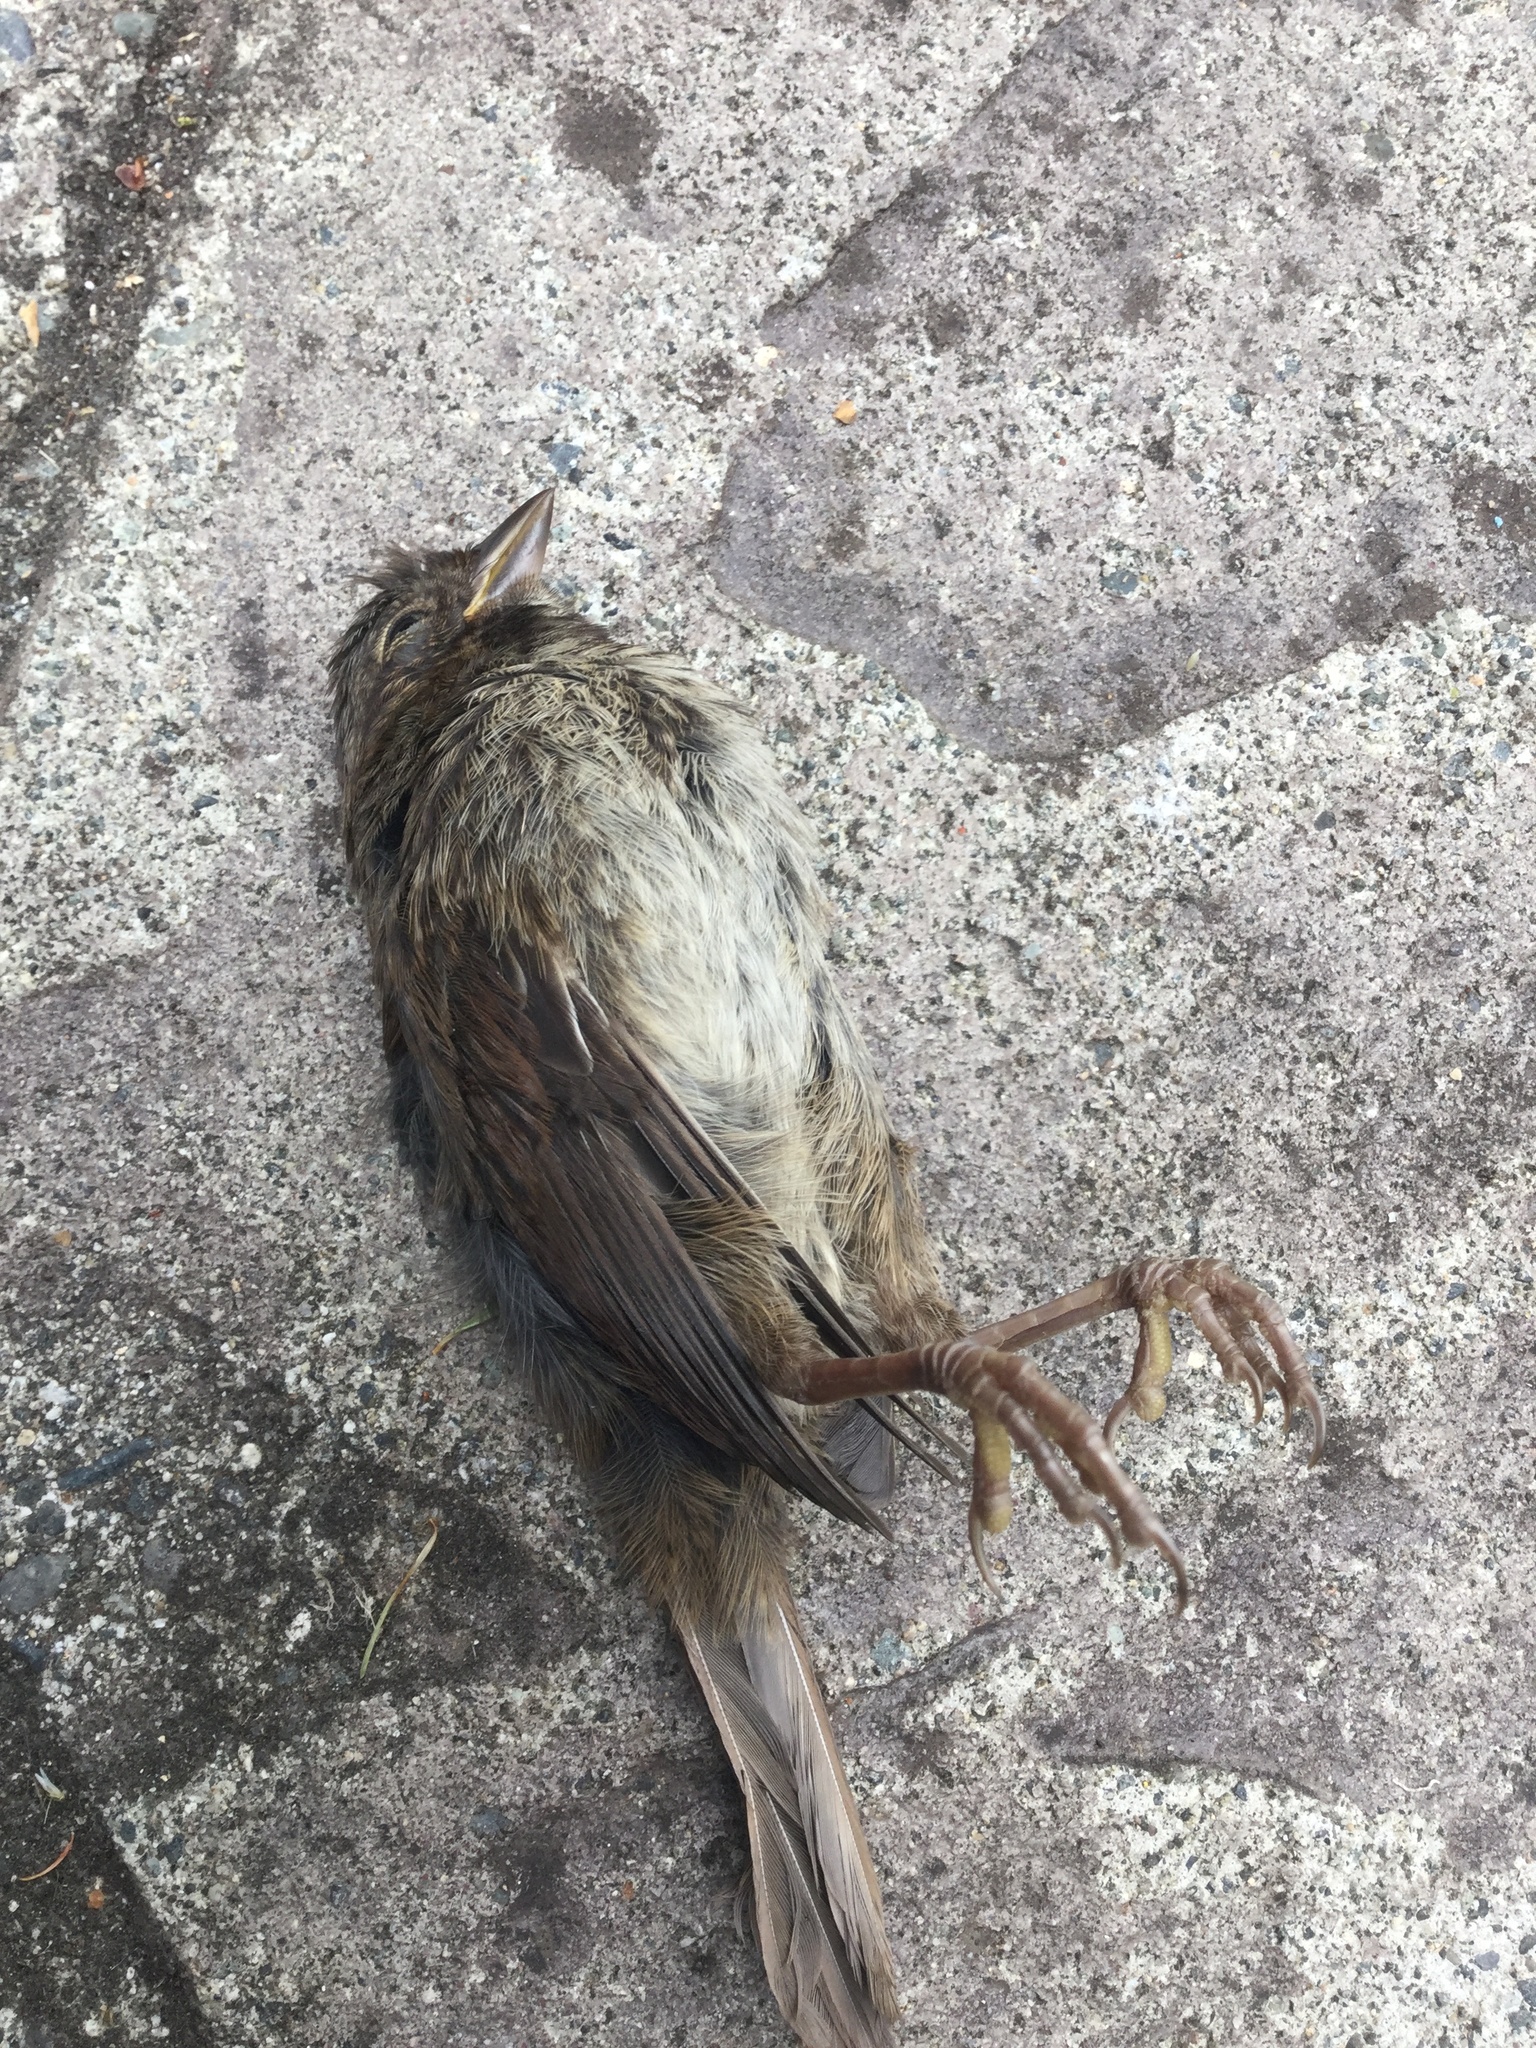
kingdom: Animalia
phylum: Chordata
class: Aves
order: Passeriformes
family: Passerellidae
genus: Melospiza
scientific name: Melospiza melodia
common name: Song sparrow
